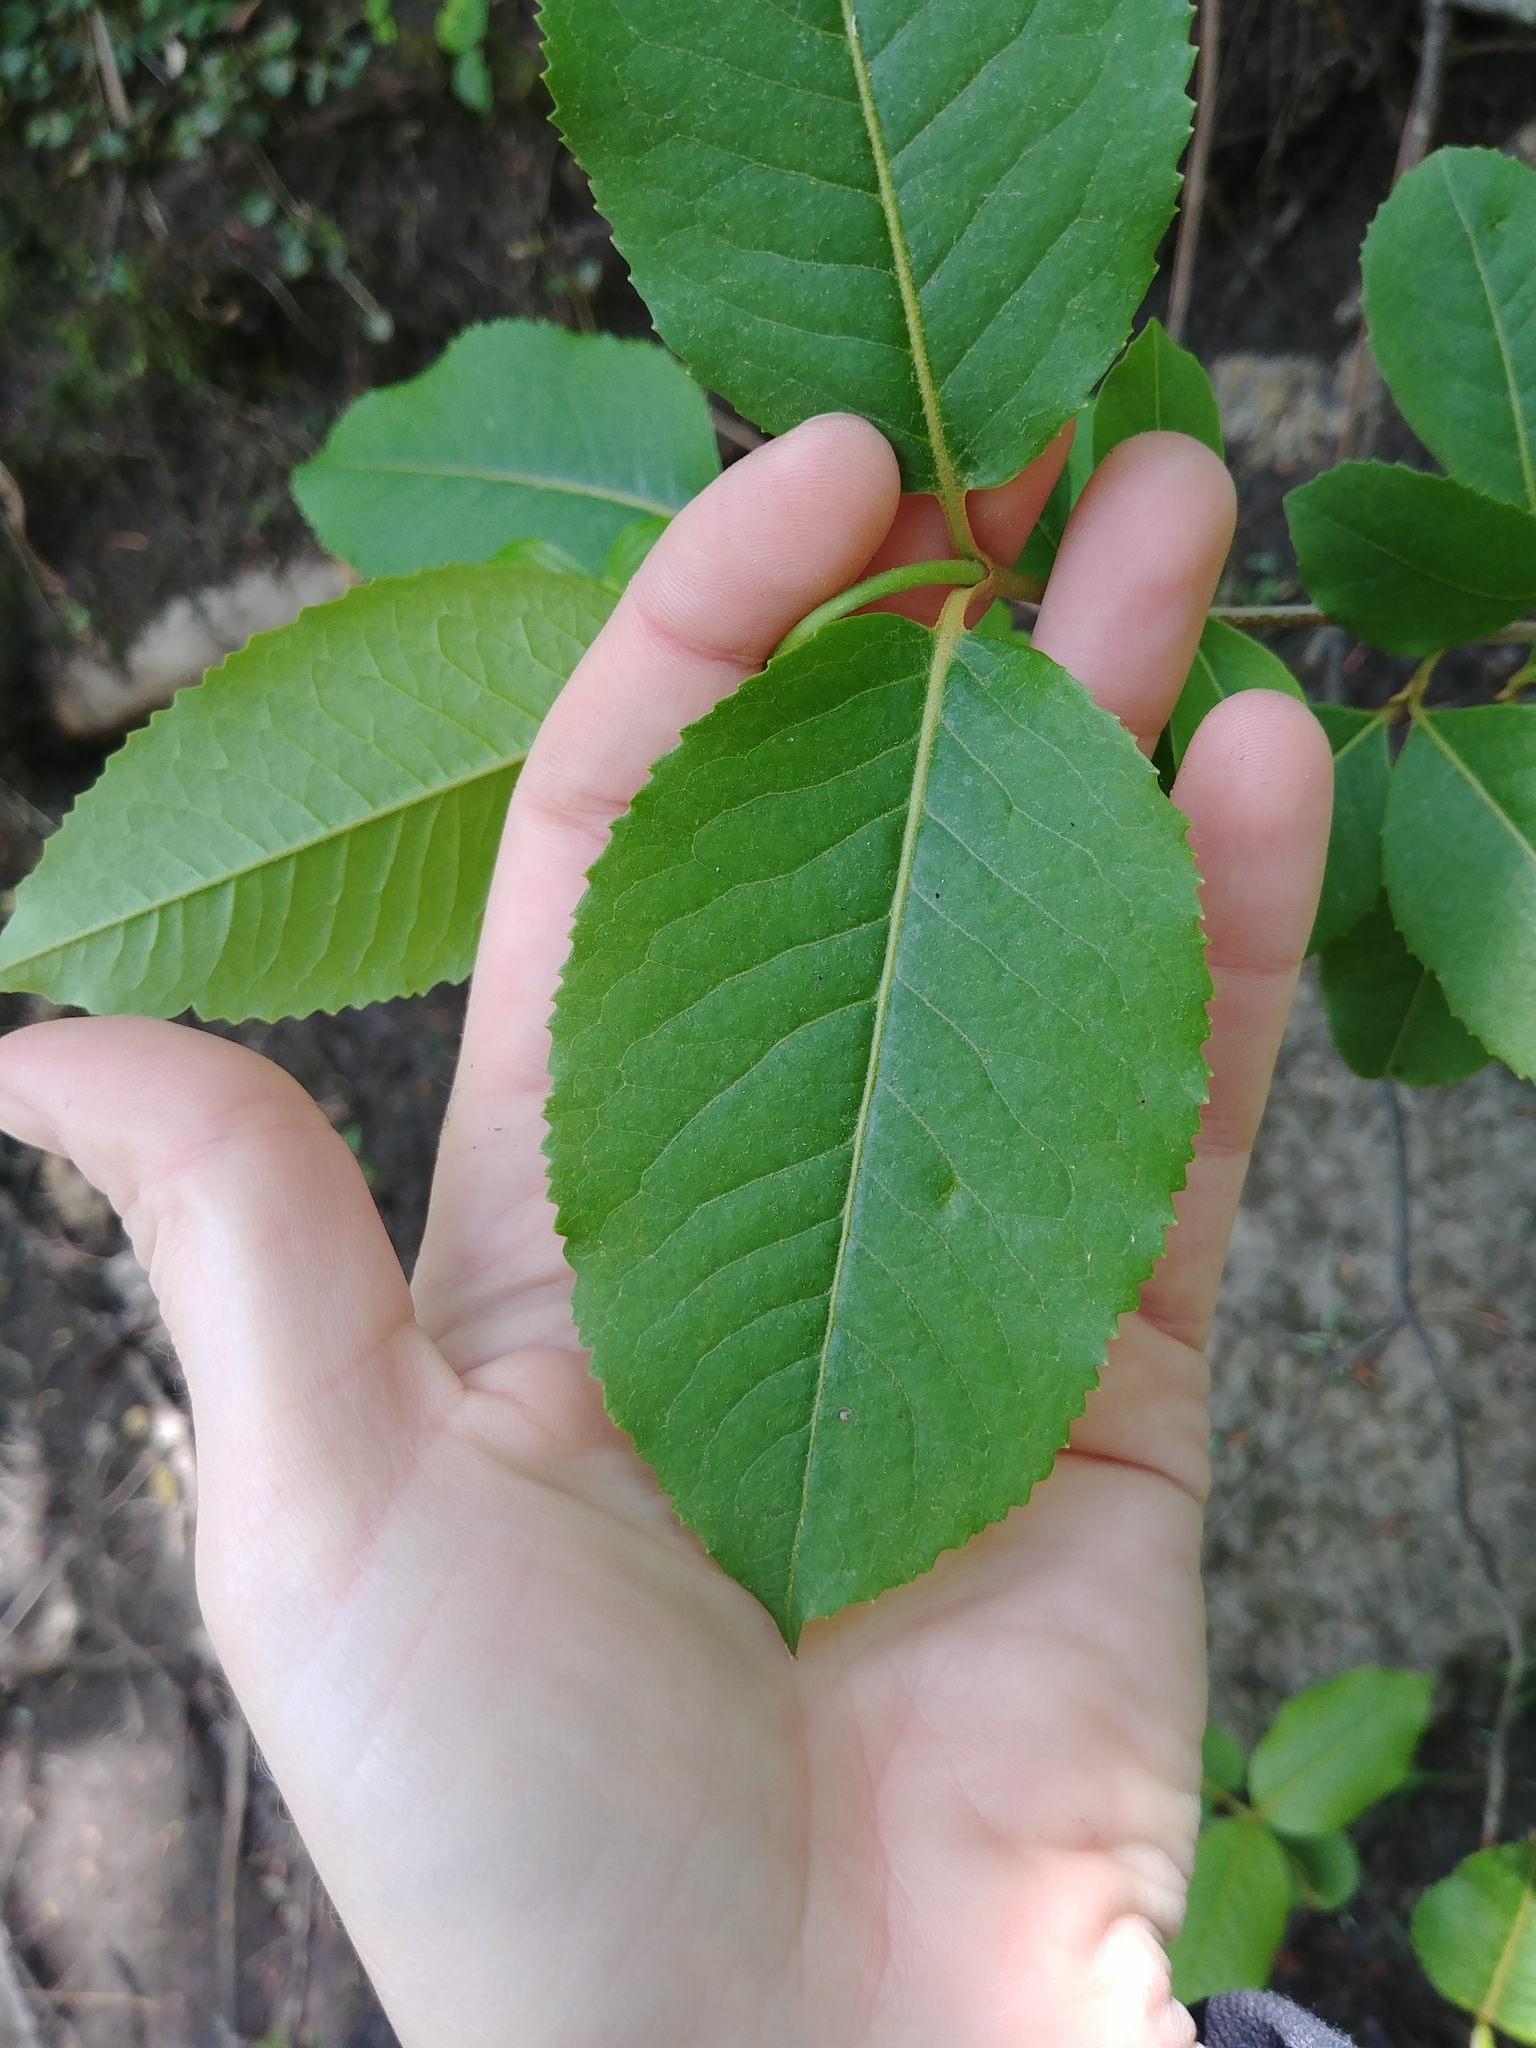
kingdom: Plantae
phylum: Tracheophyta
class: Magnoliopsida
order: Dipsacales
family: Viburnaceae
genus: Viburnum
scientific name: Viburnum cassinoides
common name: Swamp haw
